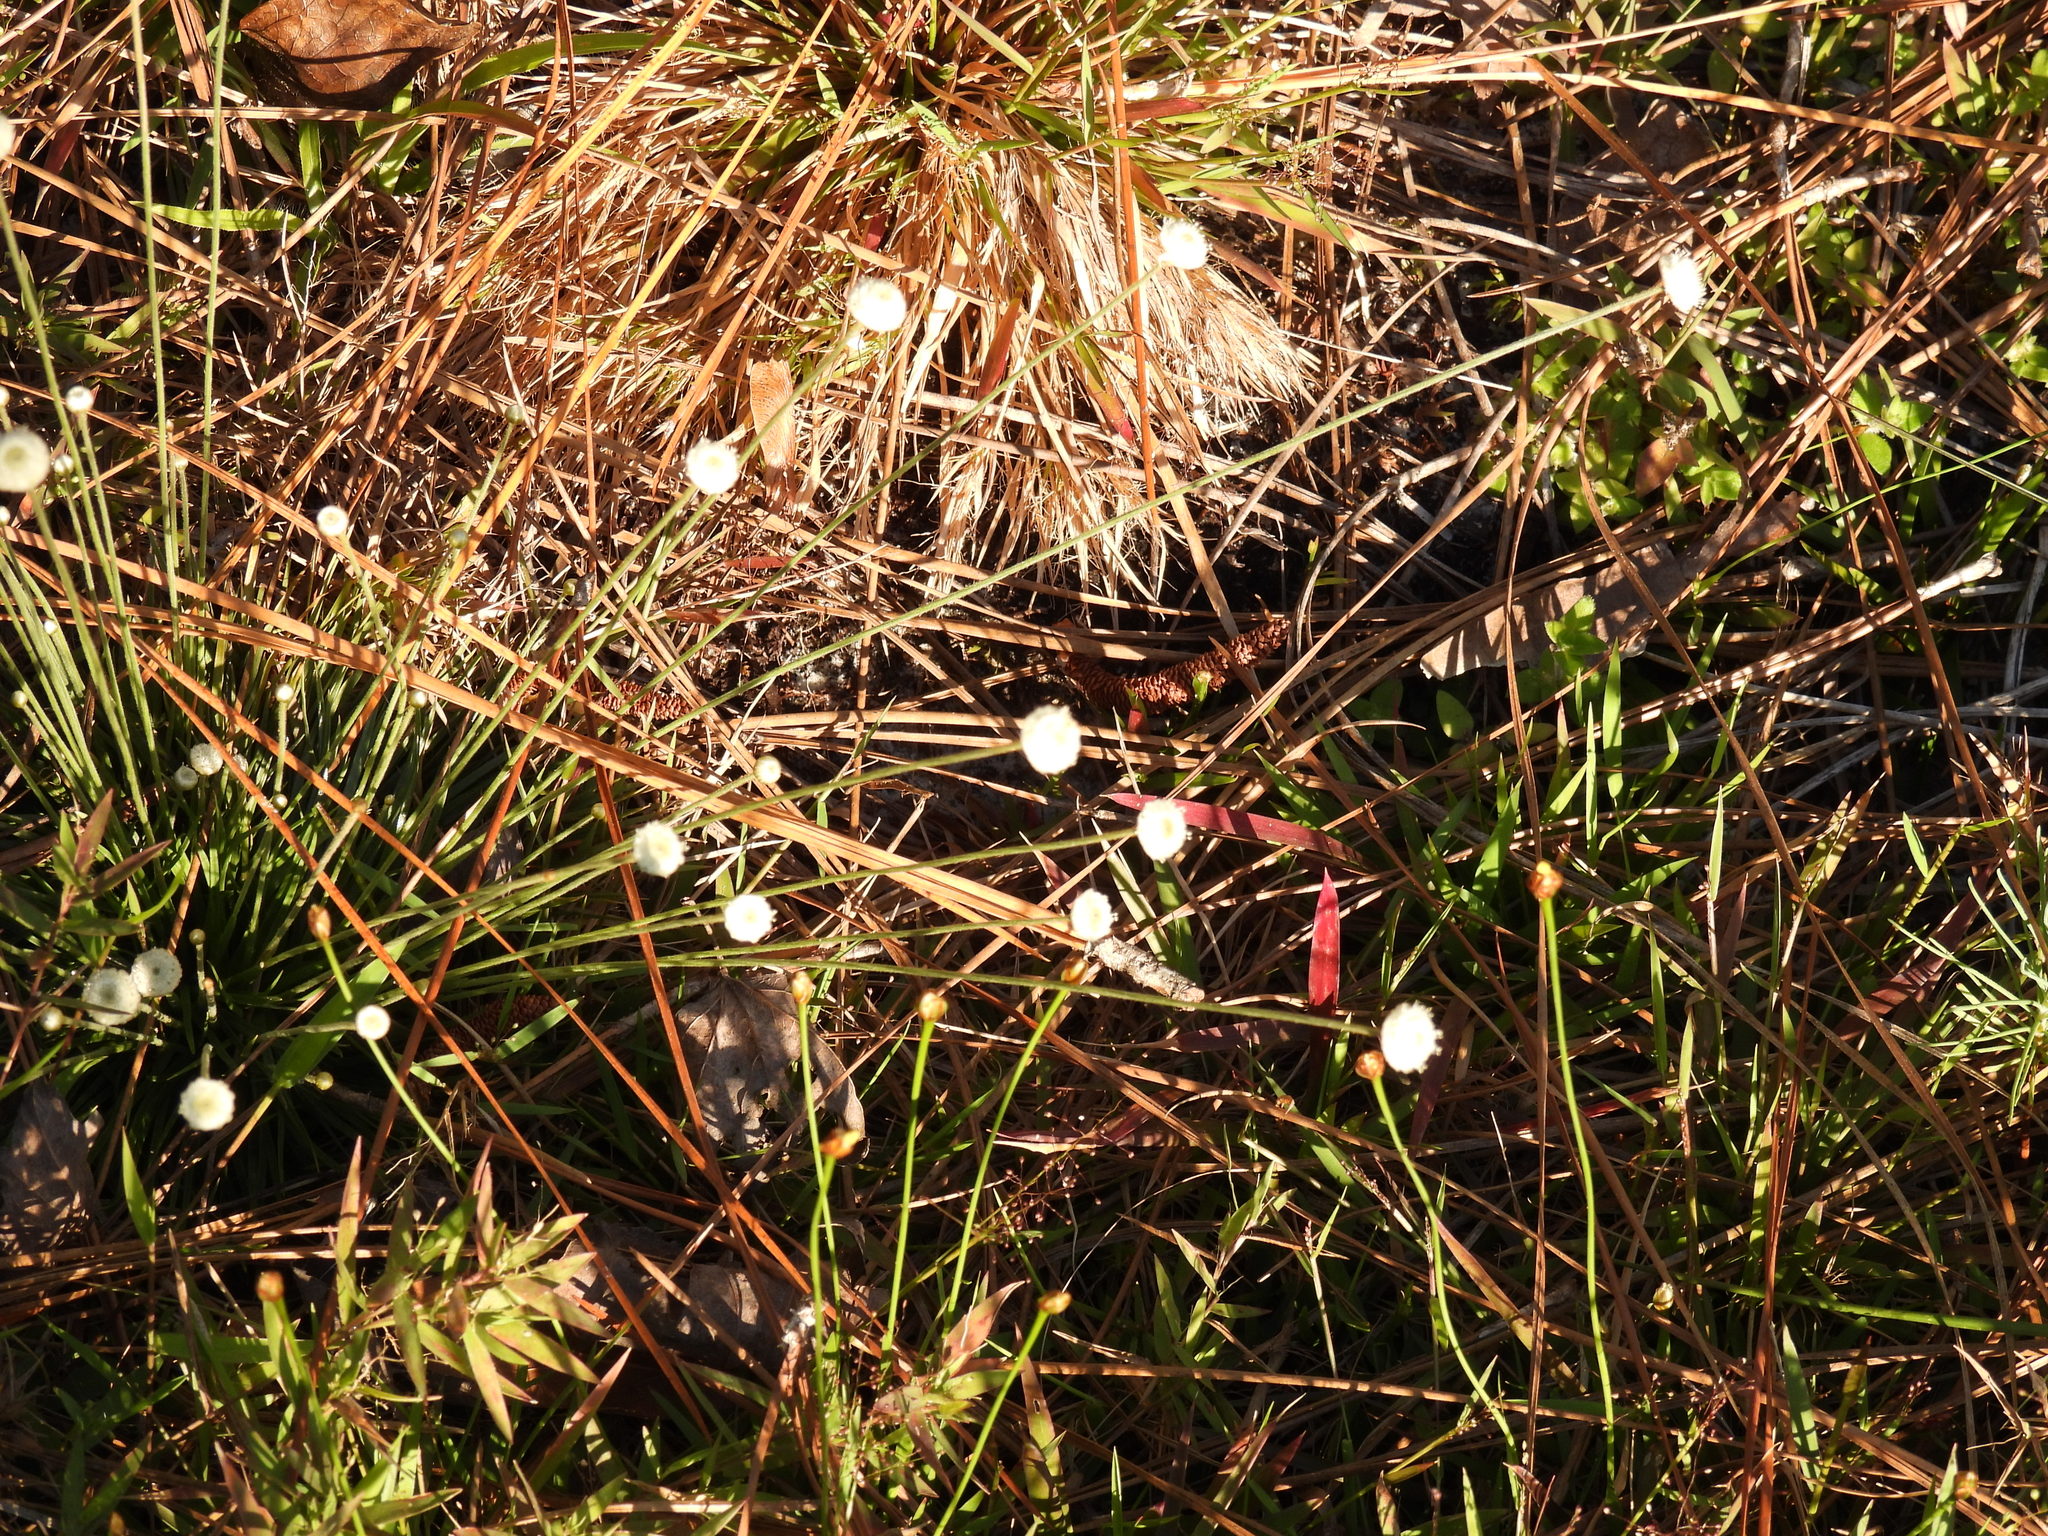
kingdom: Plantae
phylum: Tracheophyta
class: Liliopsida
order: Poales
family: Eriocaulaceae
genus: Syngonanthus
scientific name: Syngonanthus flavidulus
